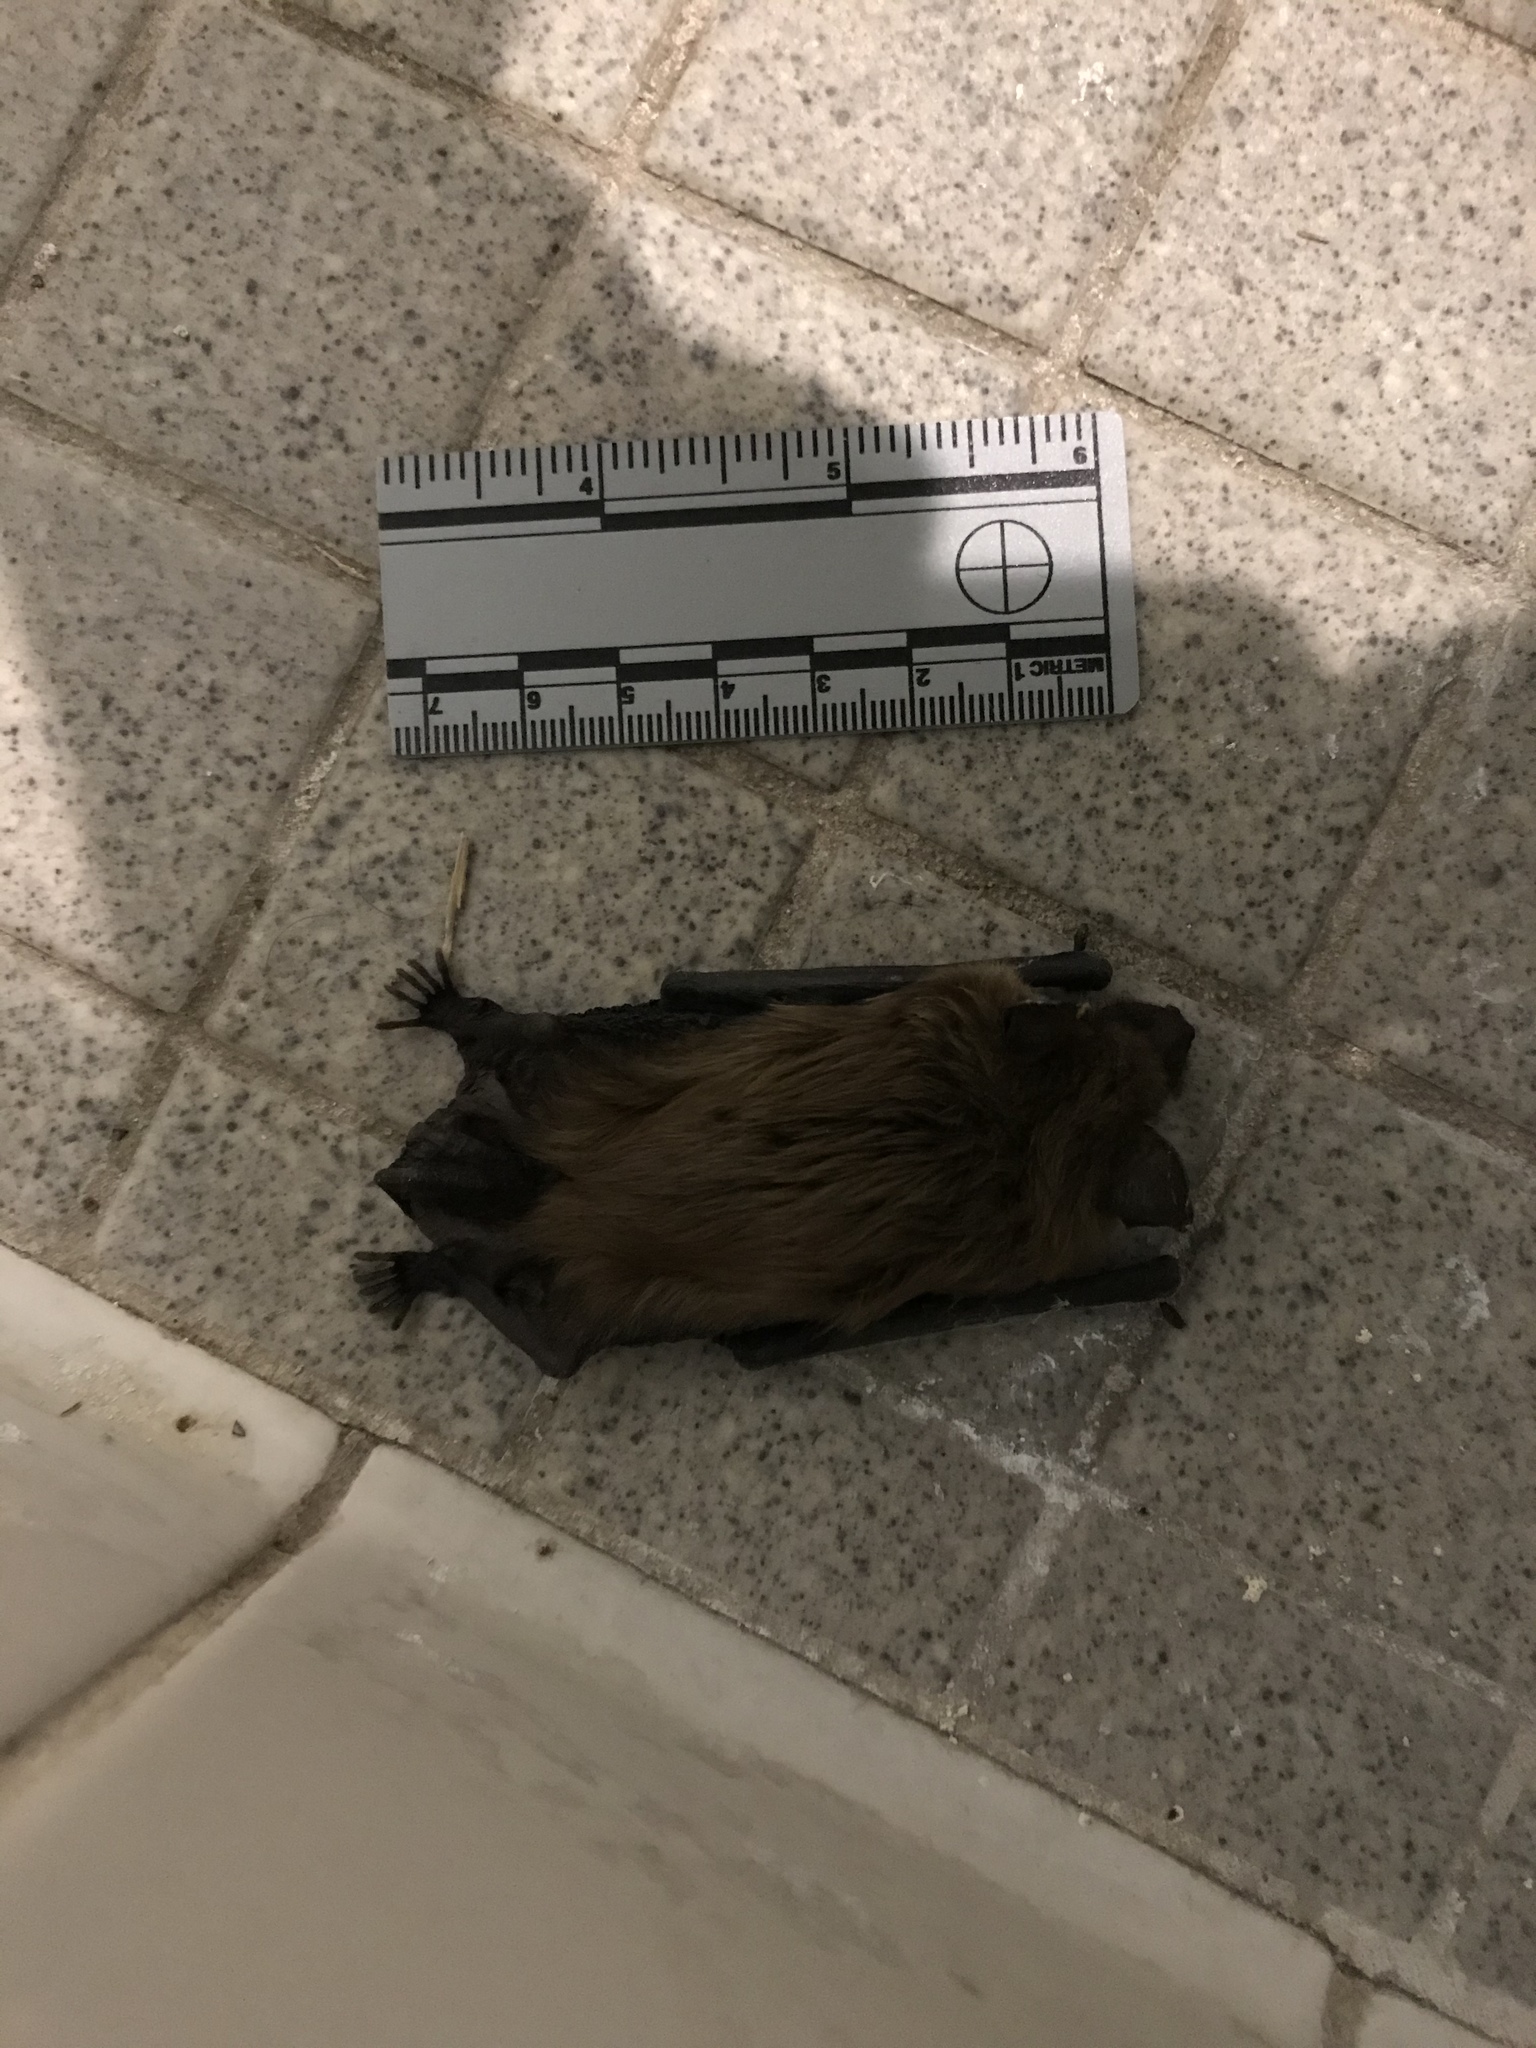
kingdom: Animalia
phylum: Chordata
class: Mammalia
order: Chiroptera
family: Vespertilionidae
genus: Eptesicus
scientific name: Eptesicus fuscus
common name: Big brown bat
